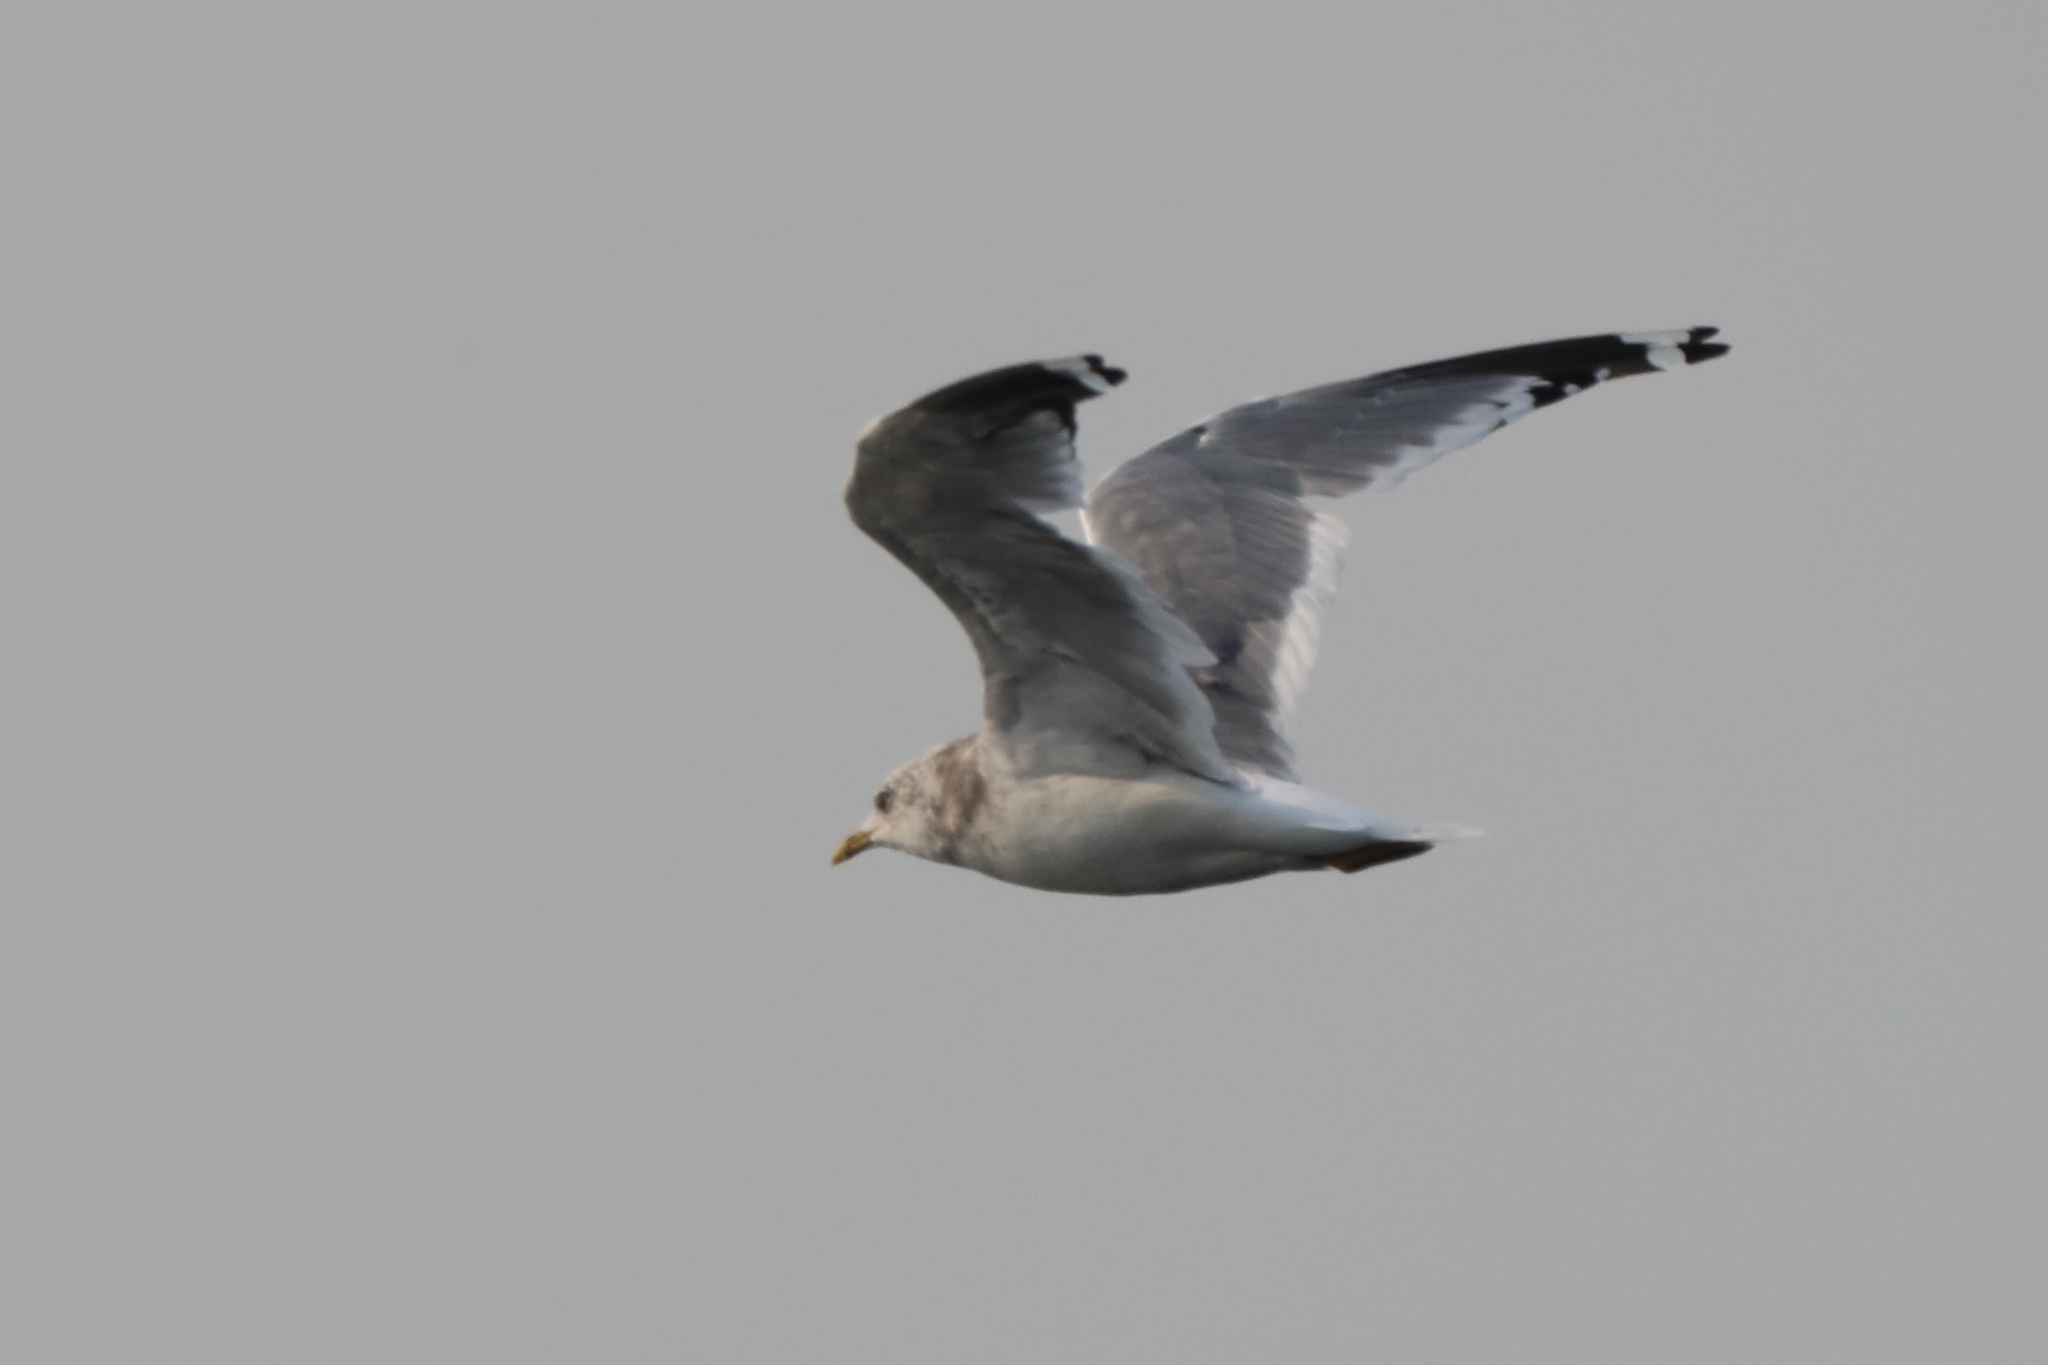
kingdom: Animalia
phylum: Chordata
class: Aves
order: Charadriiformes
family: Laridae
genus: Larus
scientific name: Larus brachyrhynchus
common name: Short-billed gull
